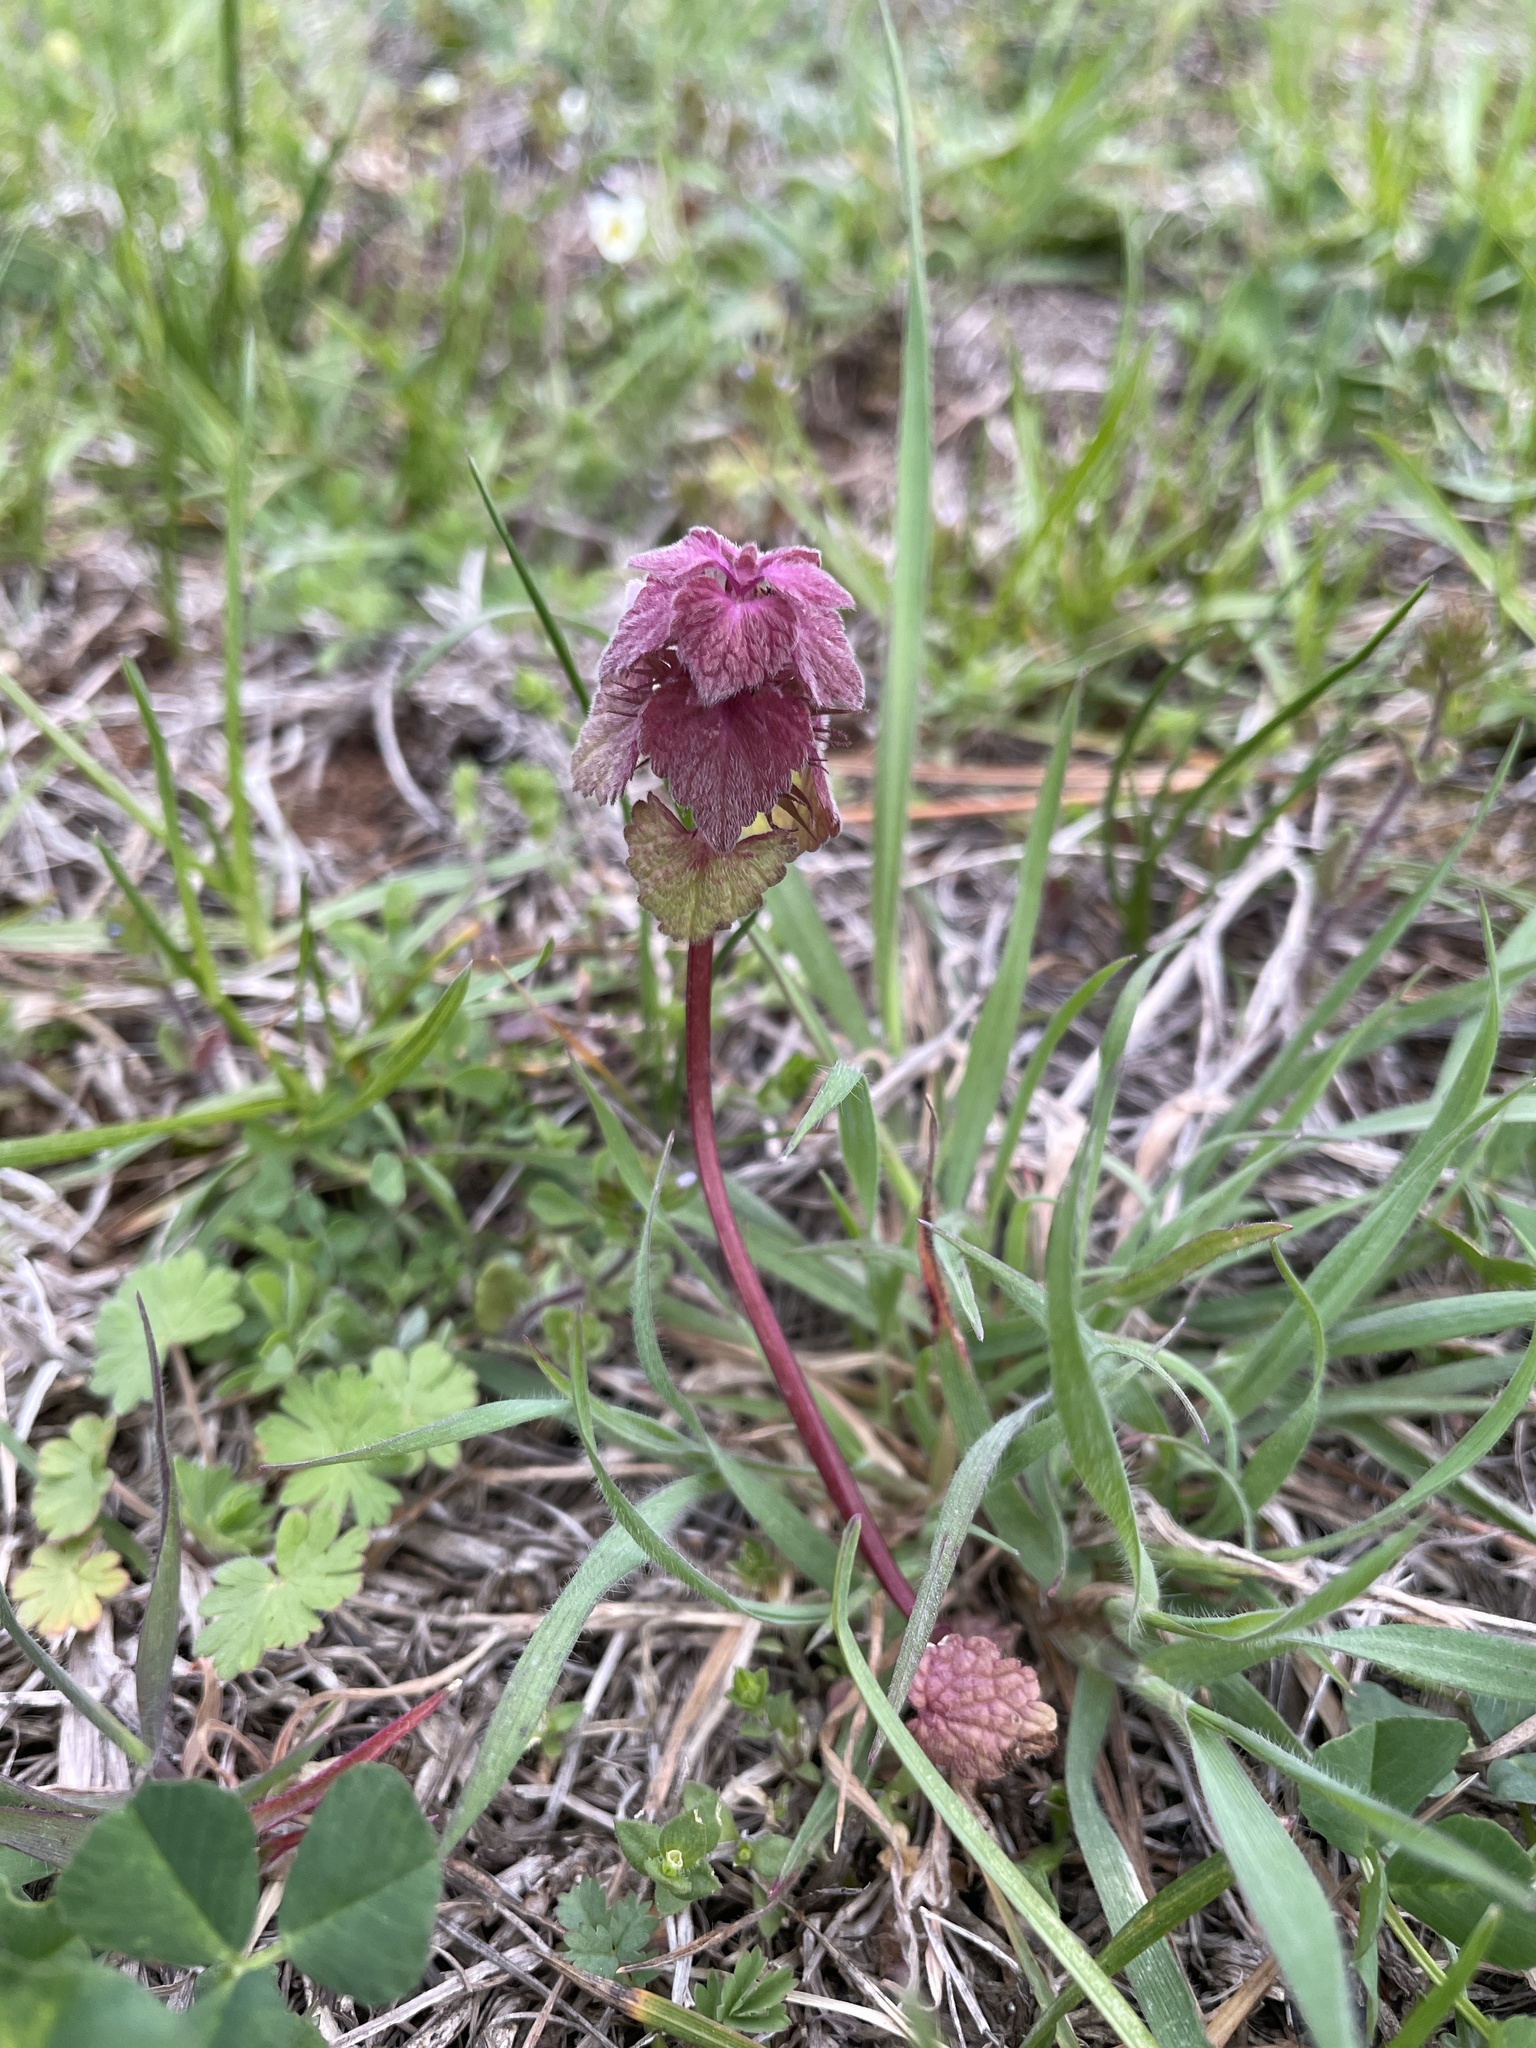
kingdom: Plantae
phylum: Tracheophyta
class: Magnoliopsida
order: Lamiales
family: Lamiaceae
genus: Lamium
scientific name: Lamium purpureum
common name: Red dead-nettle
